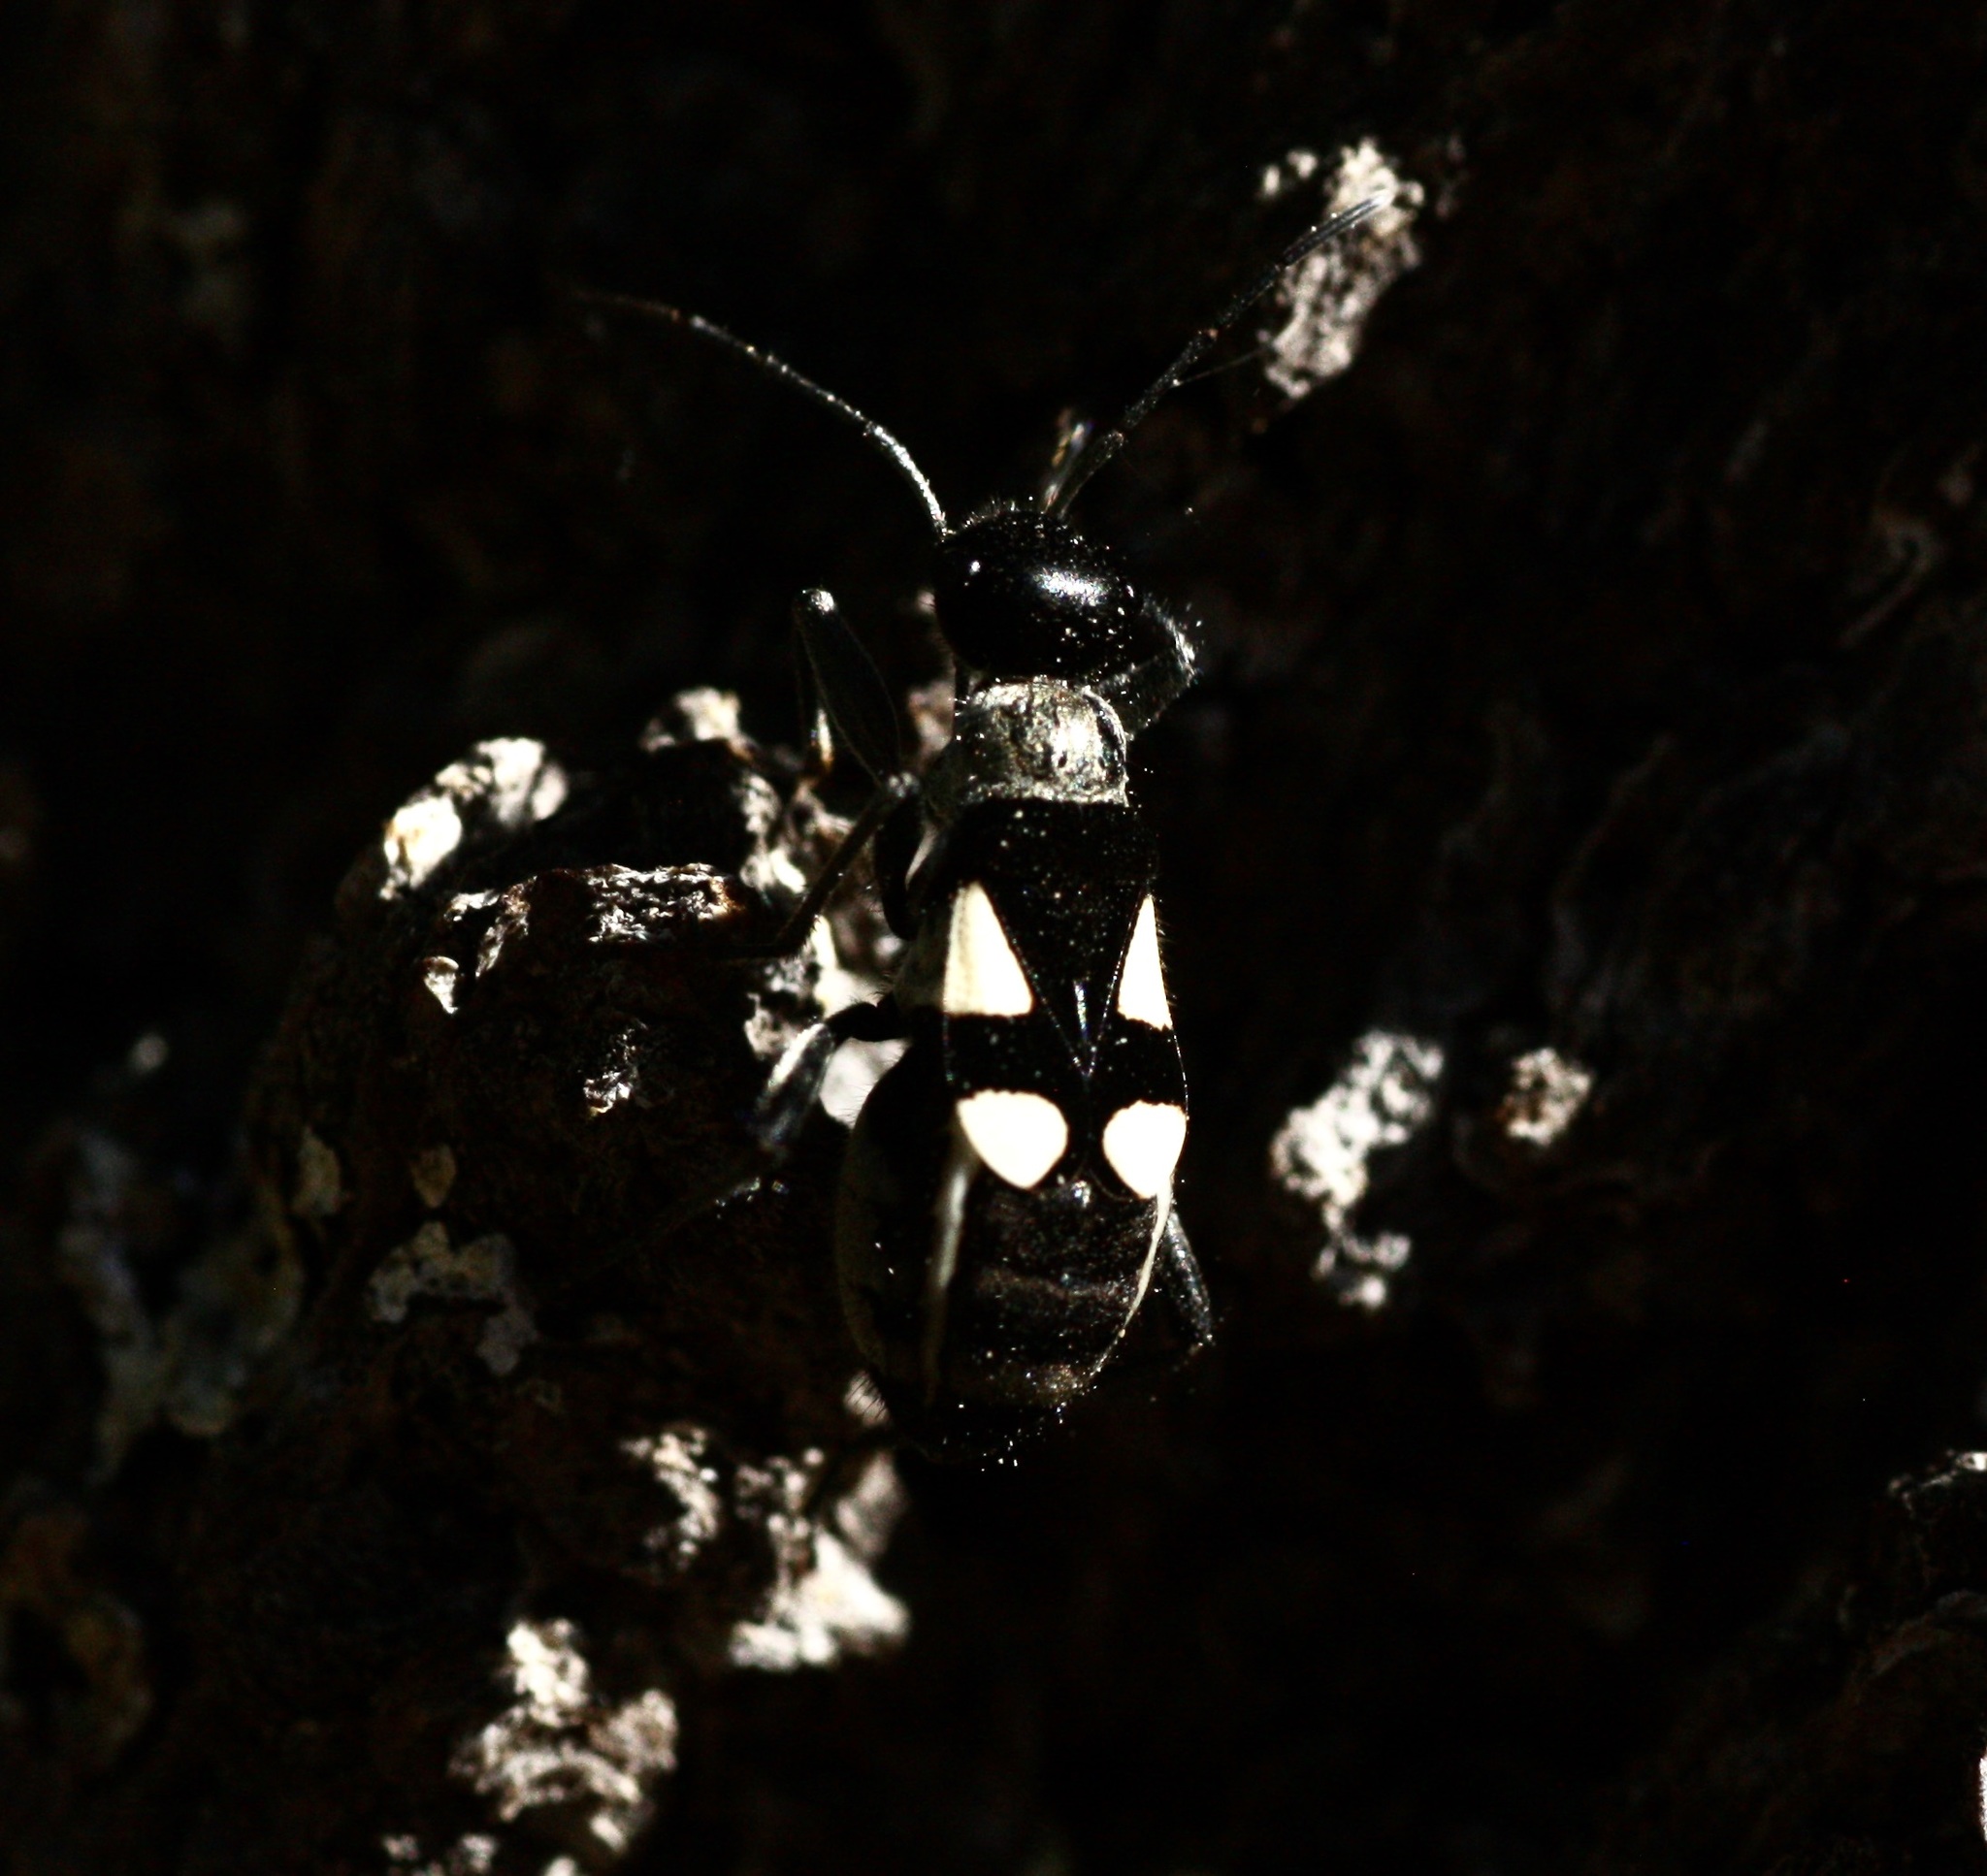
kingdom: Animalia
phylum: Arthropoda
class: Insecta
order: Hemiptera
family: Largidae
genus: Arhaphe
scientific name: Arhaphe arguta
